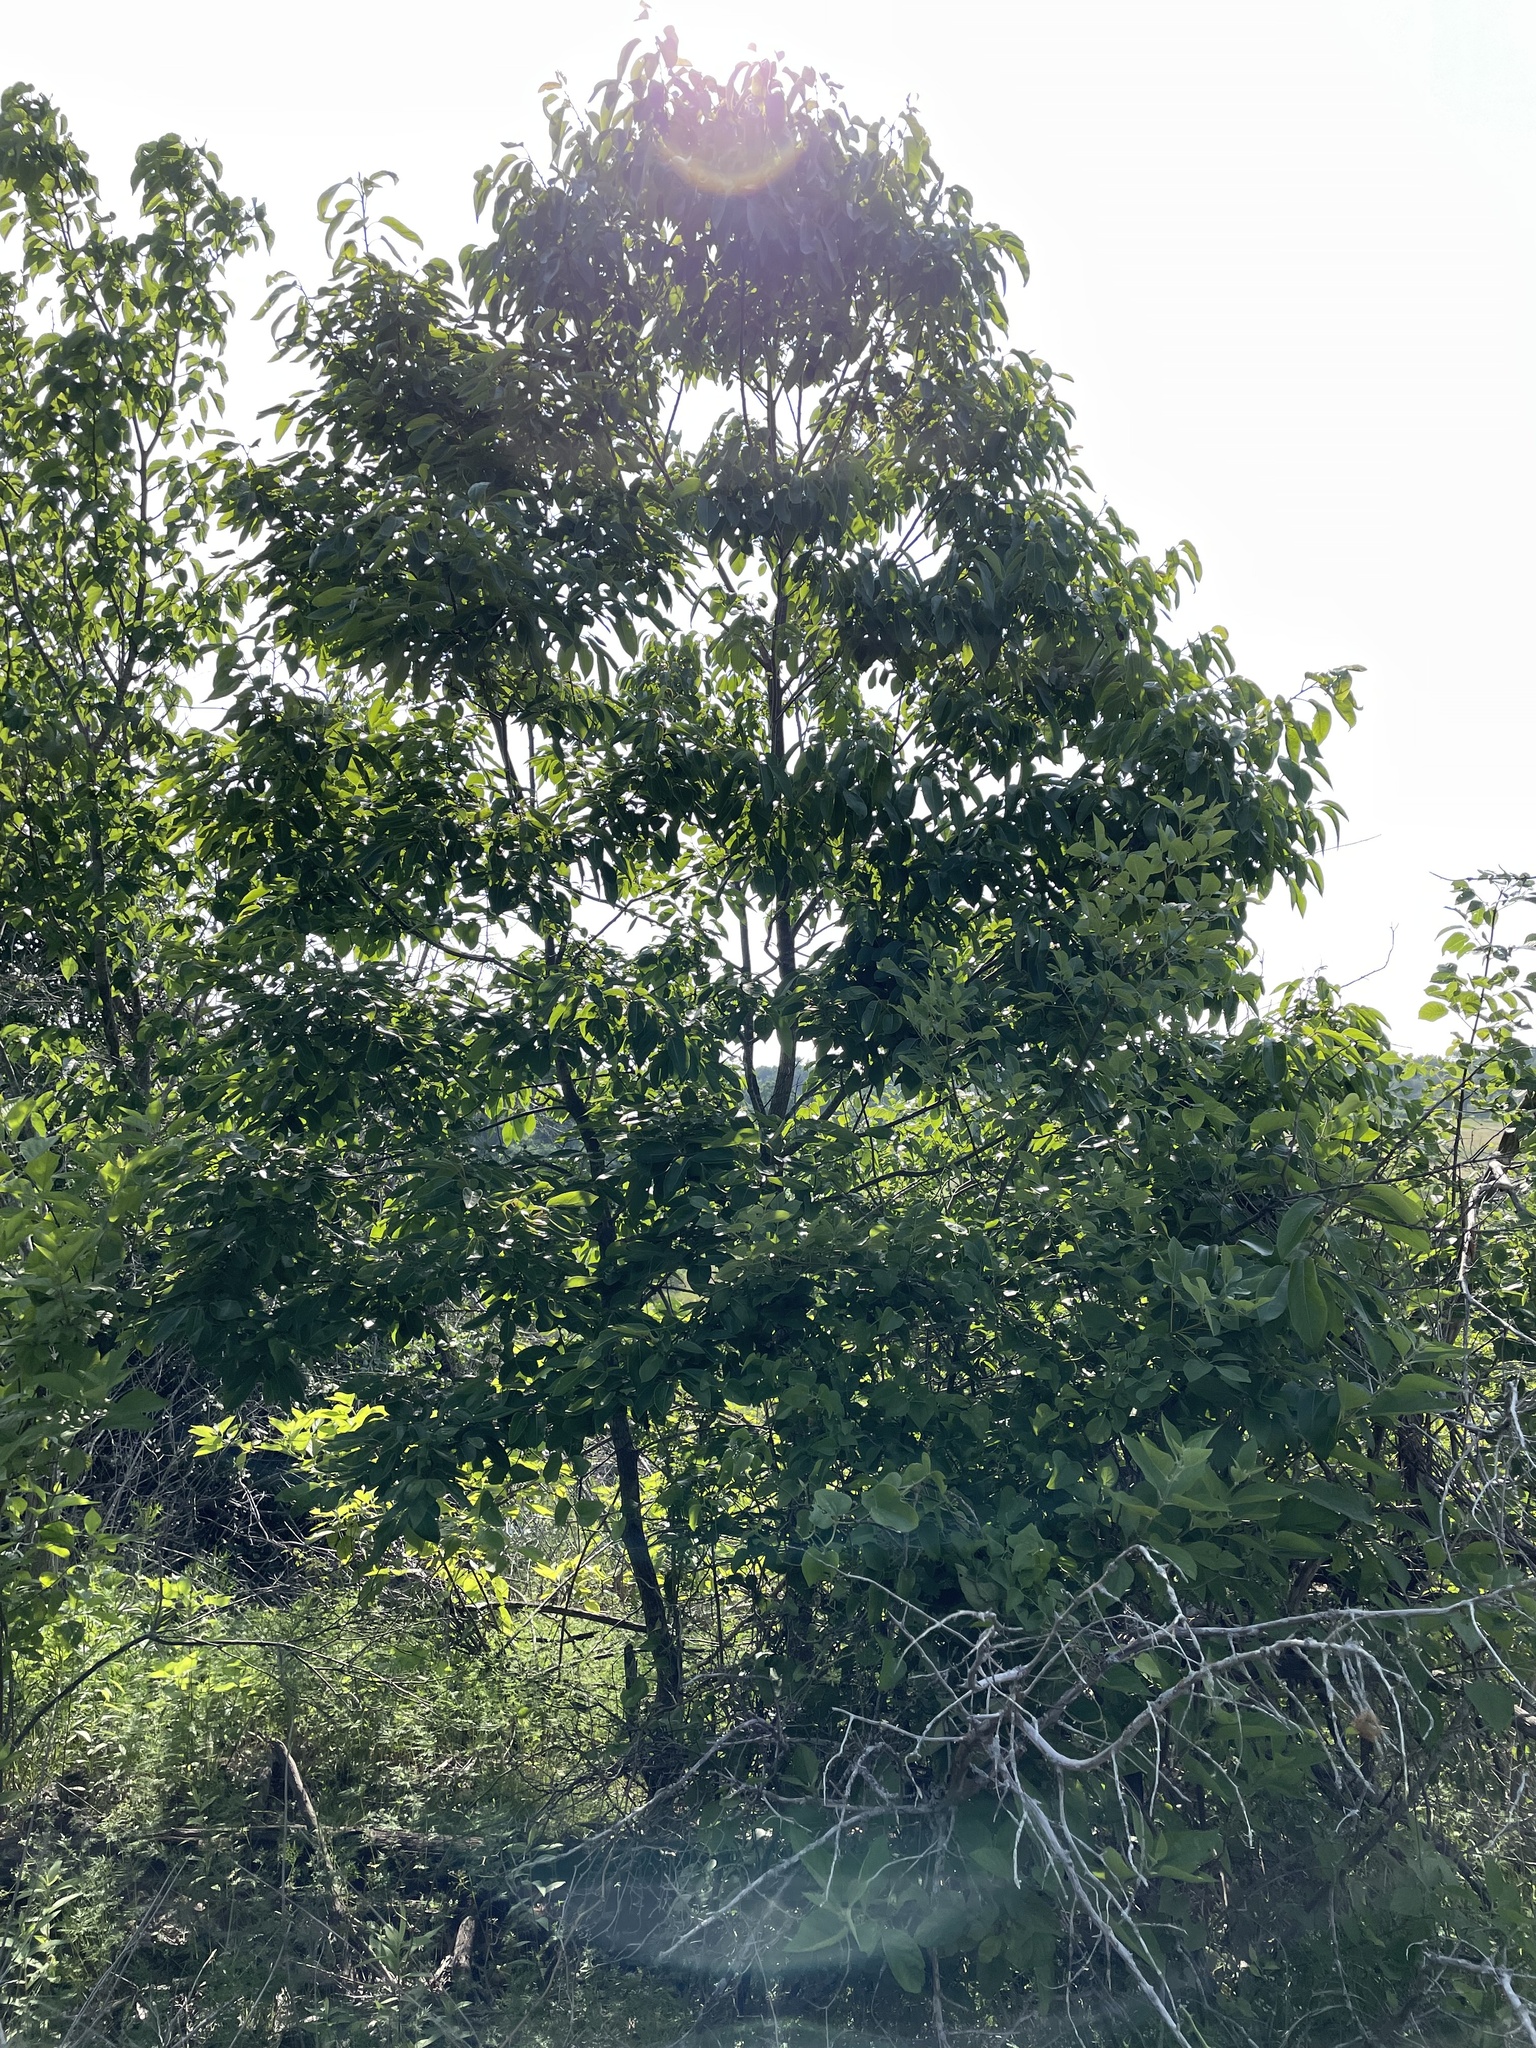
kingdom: Plantae
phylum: Tracheophyta
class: Magnoliopsida
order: Ericales
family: Ebenaceae
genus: Diospyros
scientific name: Diospyros virginiana
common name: Persimmon
